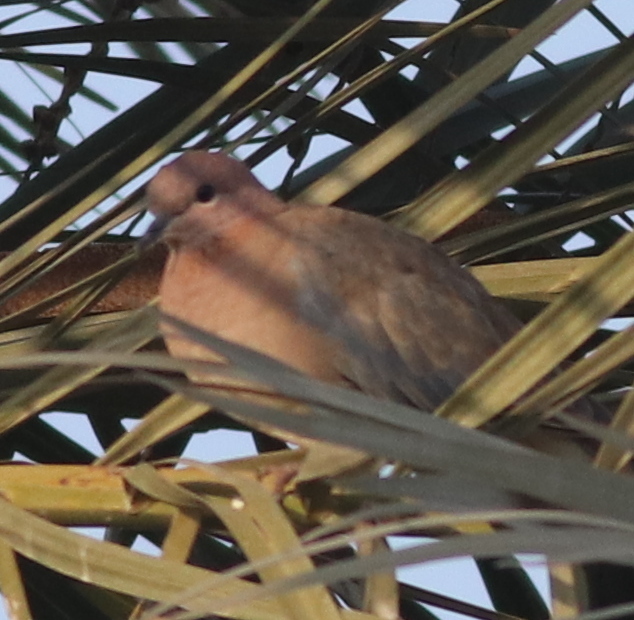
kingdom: Animalia
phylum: Chordata
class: Aves
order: Columbiformes
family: Columbidae
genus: Spilopelia
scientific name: Spilopelia senegalensis
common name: Laughing dove
